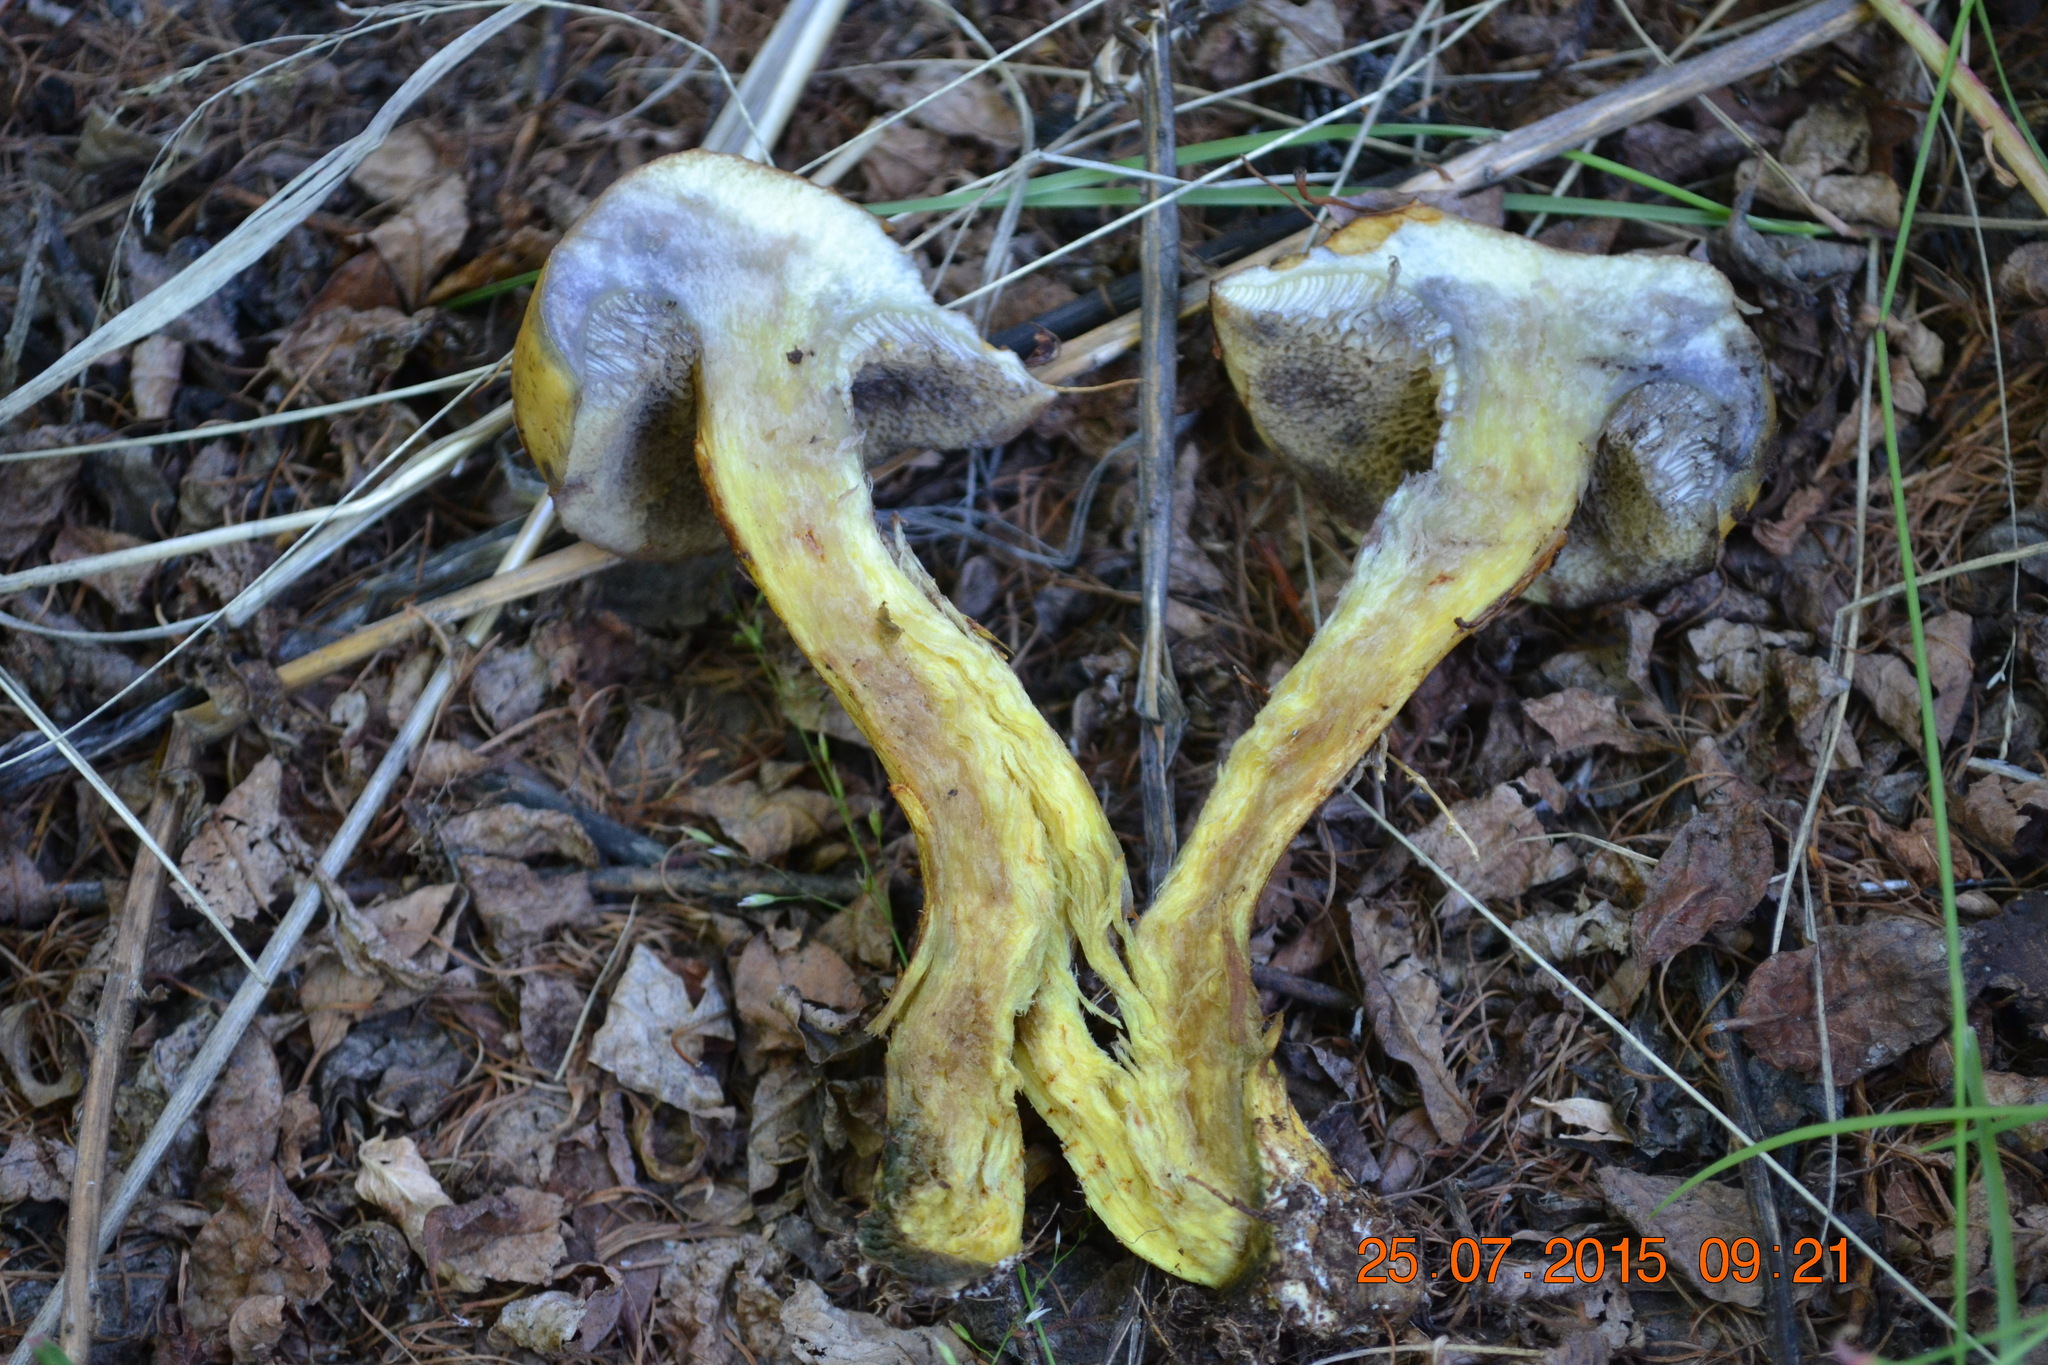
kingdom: Fungi
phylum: Basidiomycota
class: Agaricomycetes
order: Boletales
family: Suillaceae
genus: Suillus
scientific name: Suillus americanus
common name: Chicken fat mushroom
